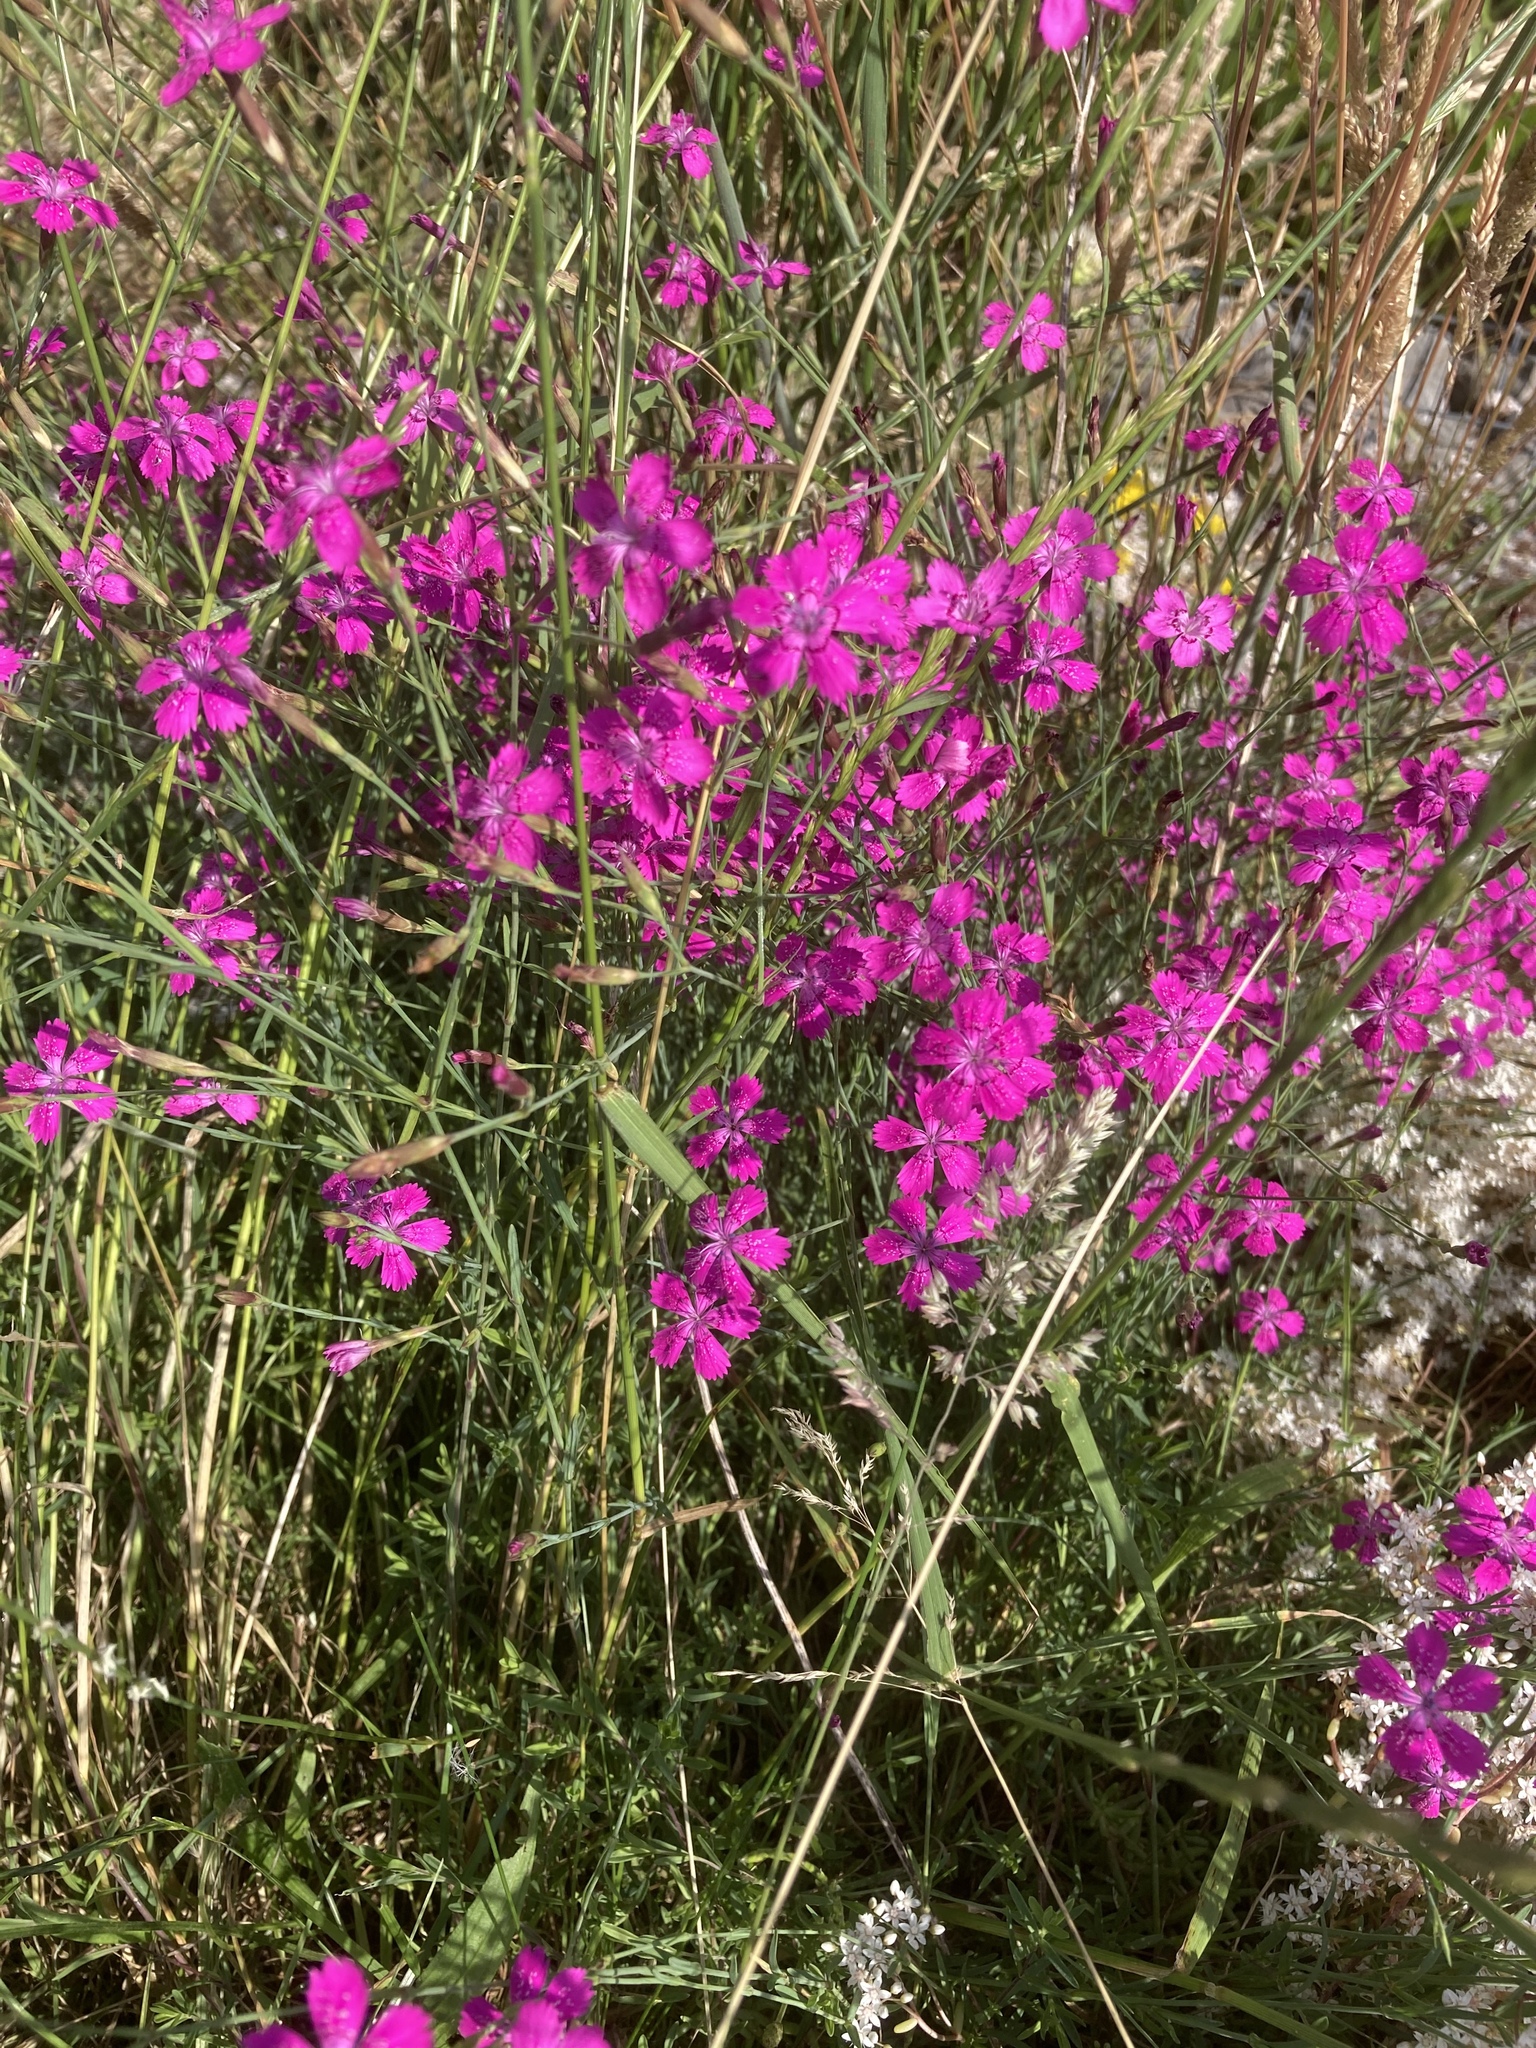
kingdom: Plantae
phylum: Tracheophyta
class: Magnoliopsida
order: Caryophyllales
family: Caryophyllaceae
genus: Dianthus
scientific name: Dianthus deltoides
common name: Maiden pink
